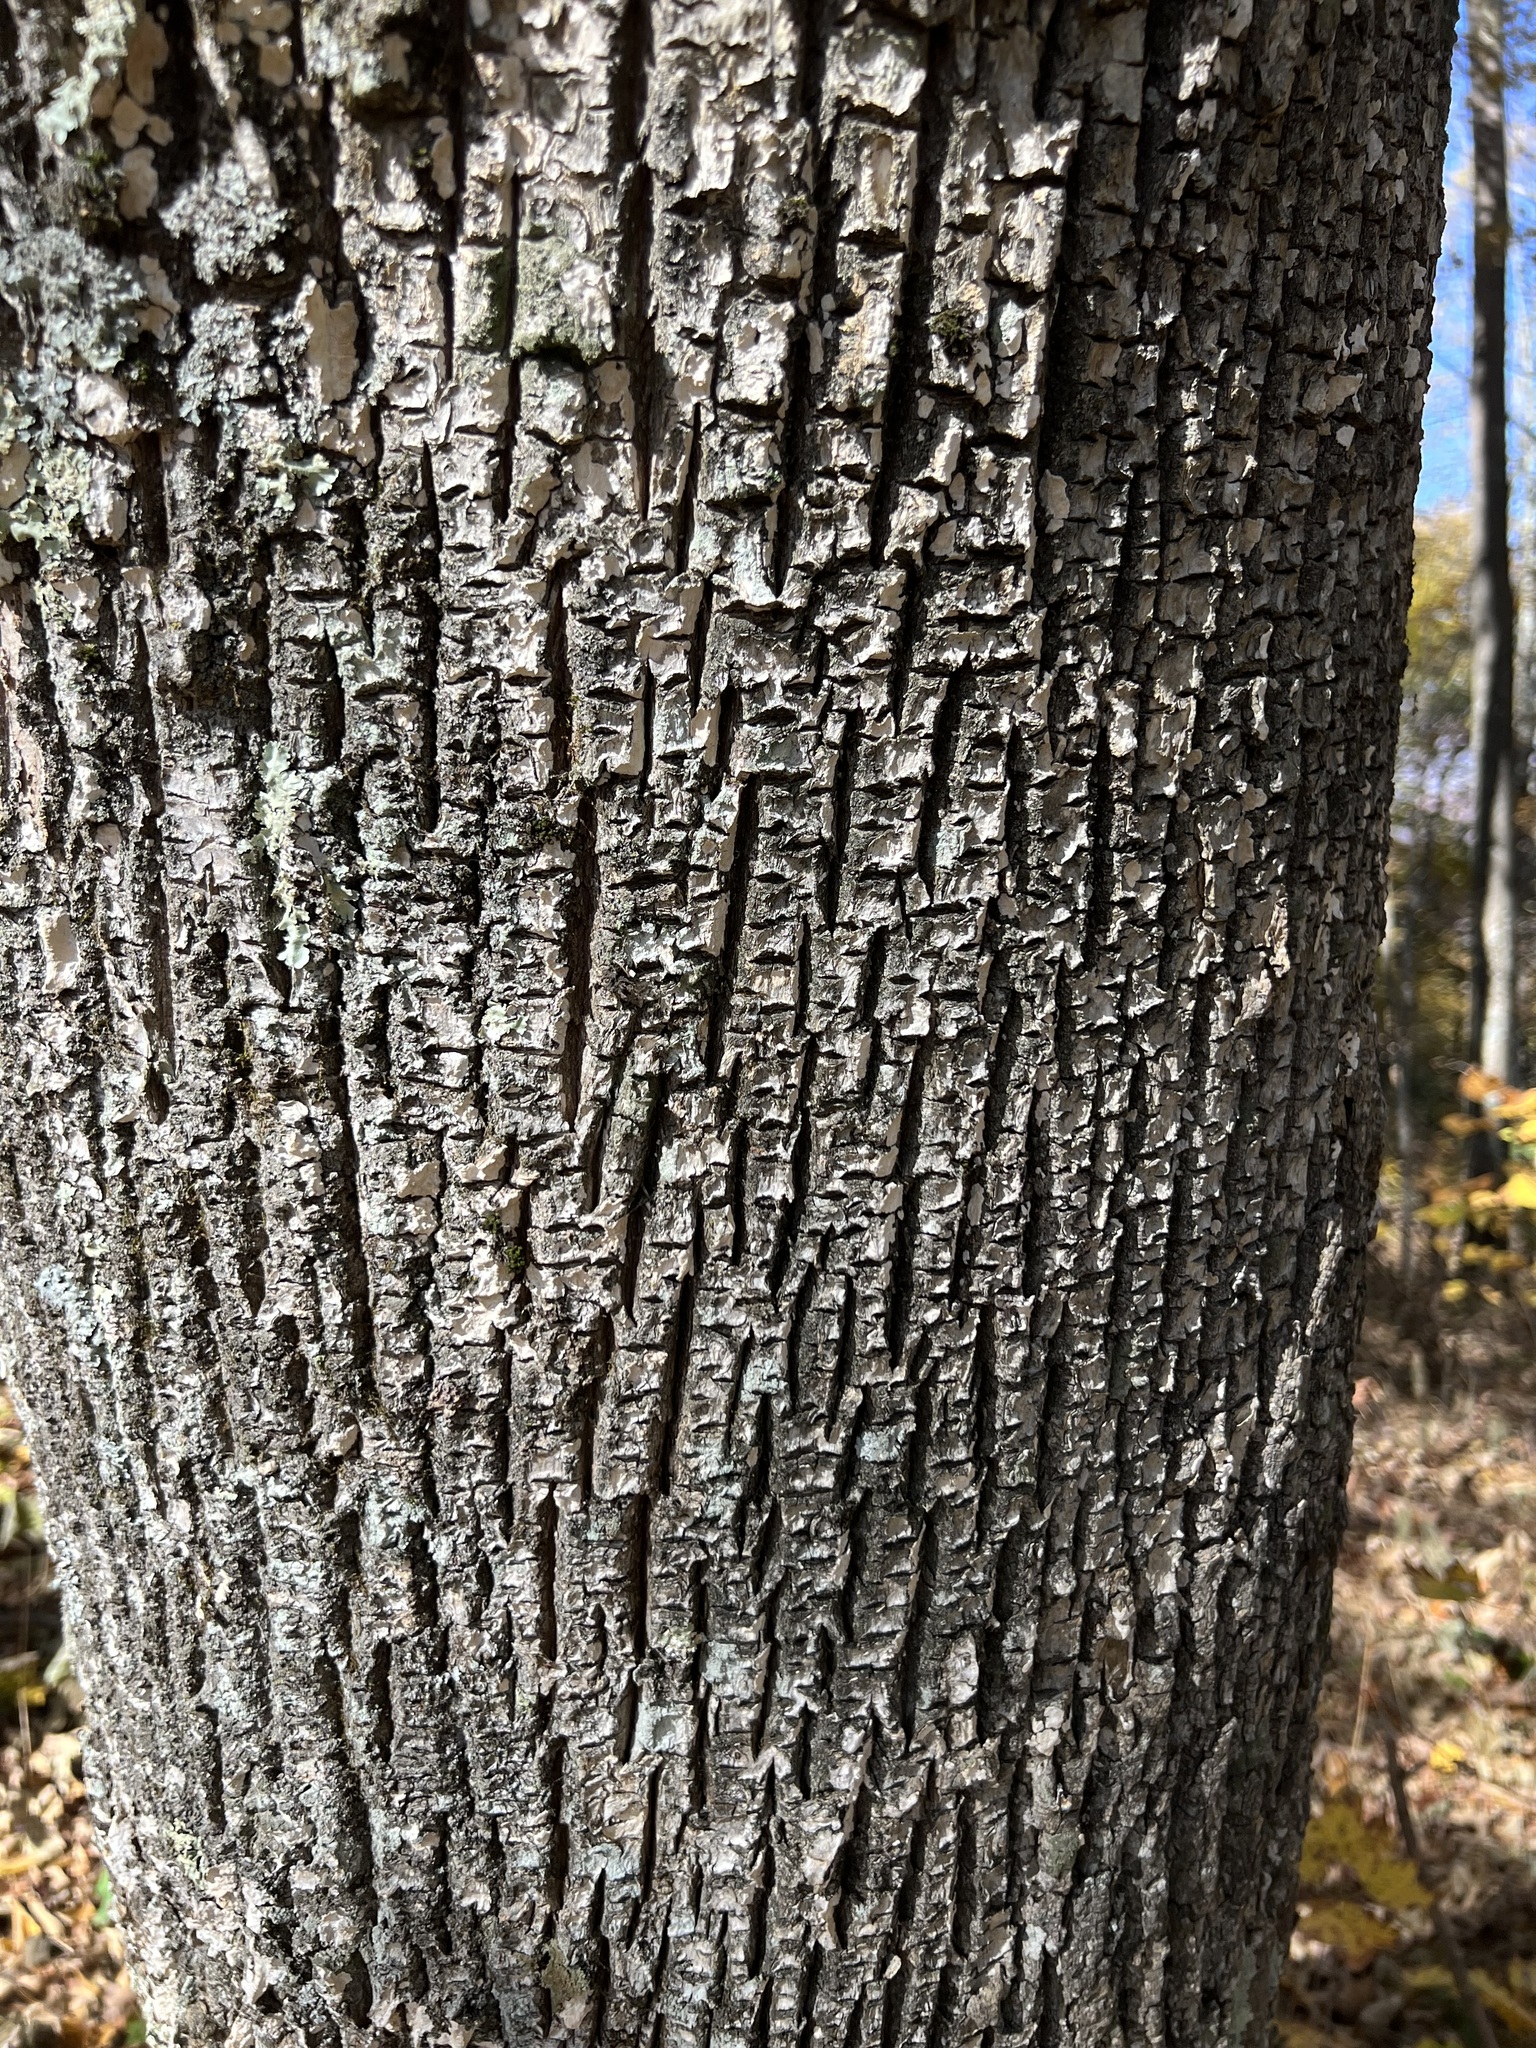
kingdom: Plantae
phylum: Tracheophyta
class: Magnoliopsida
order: Lamiales
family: Oleaceae
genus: Fraxinus
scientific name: Fraxinus americana
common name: White ash
